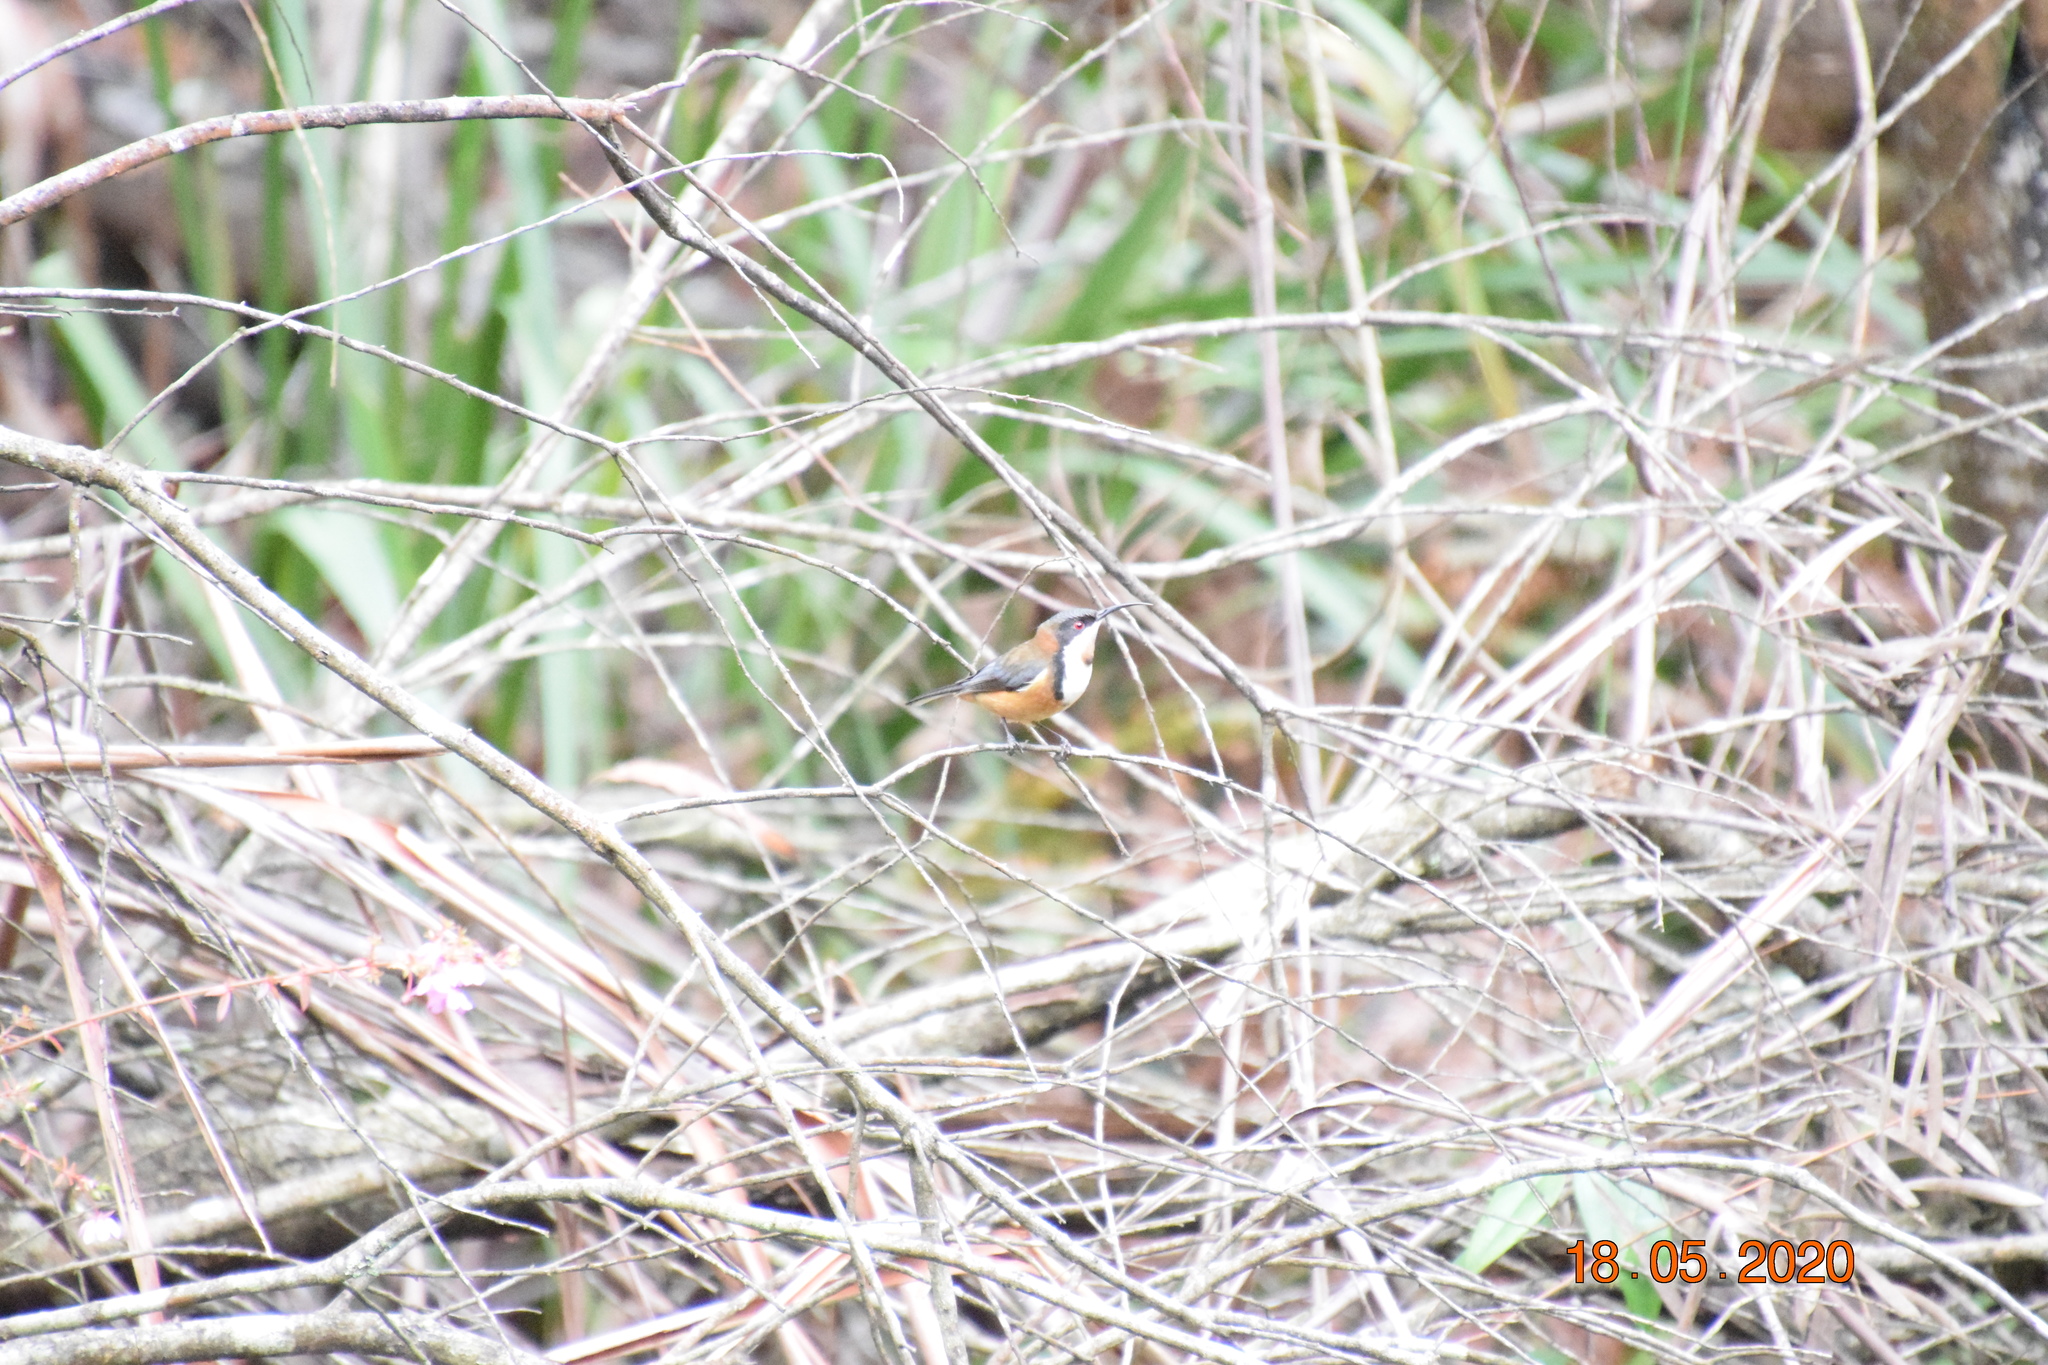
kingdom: Animalia
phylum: Chordata
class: Aves
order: Passeriformes
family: Meliphagidae
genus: Acanthorhynchus
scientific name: Acanthorhynchus tenuirostris
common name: Eastern spinebill
